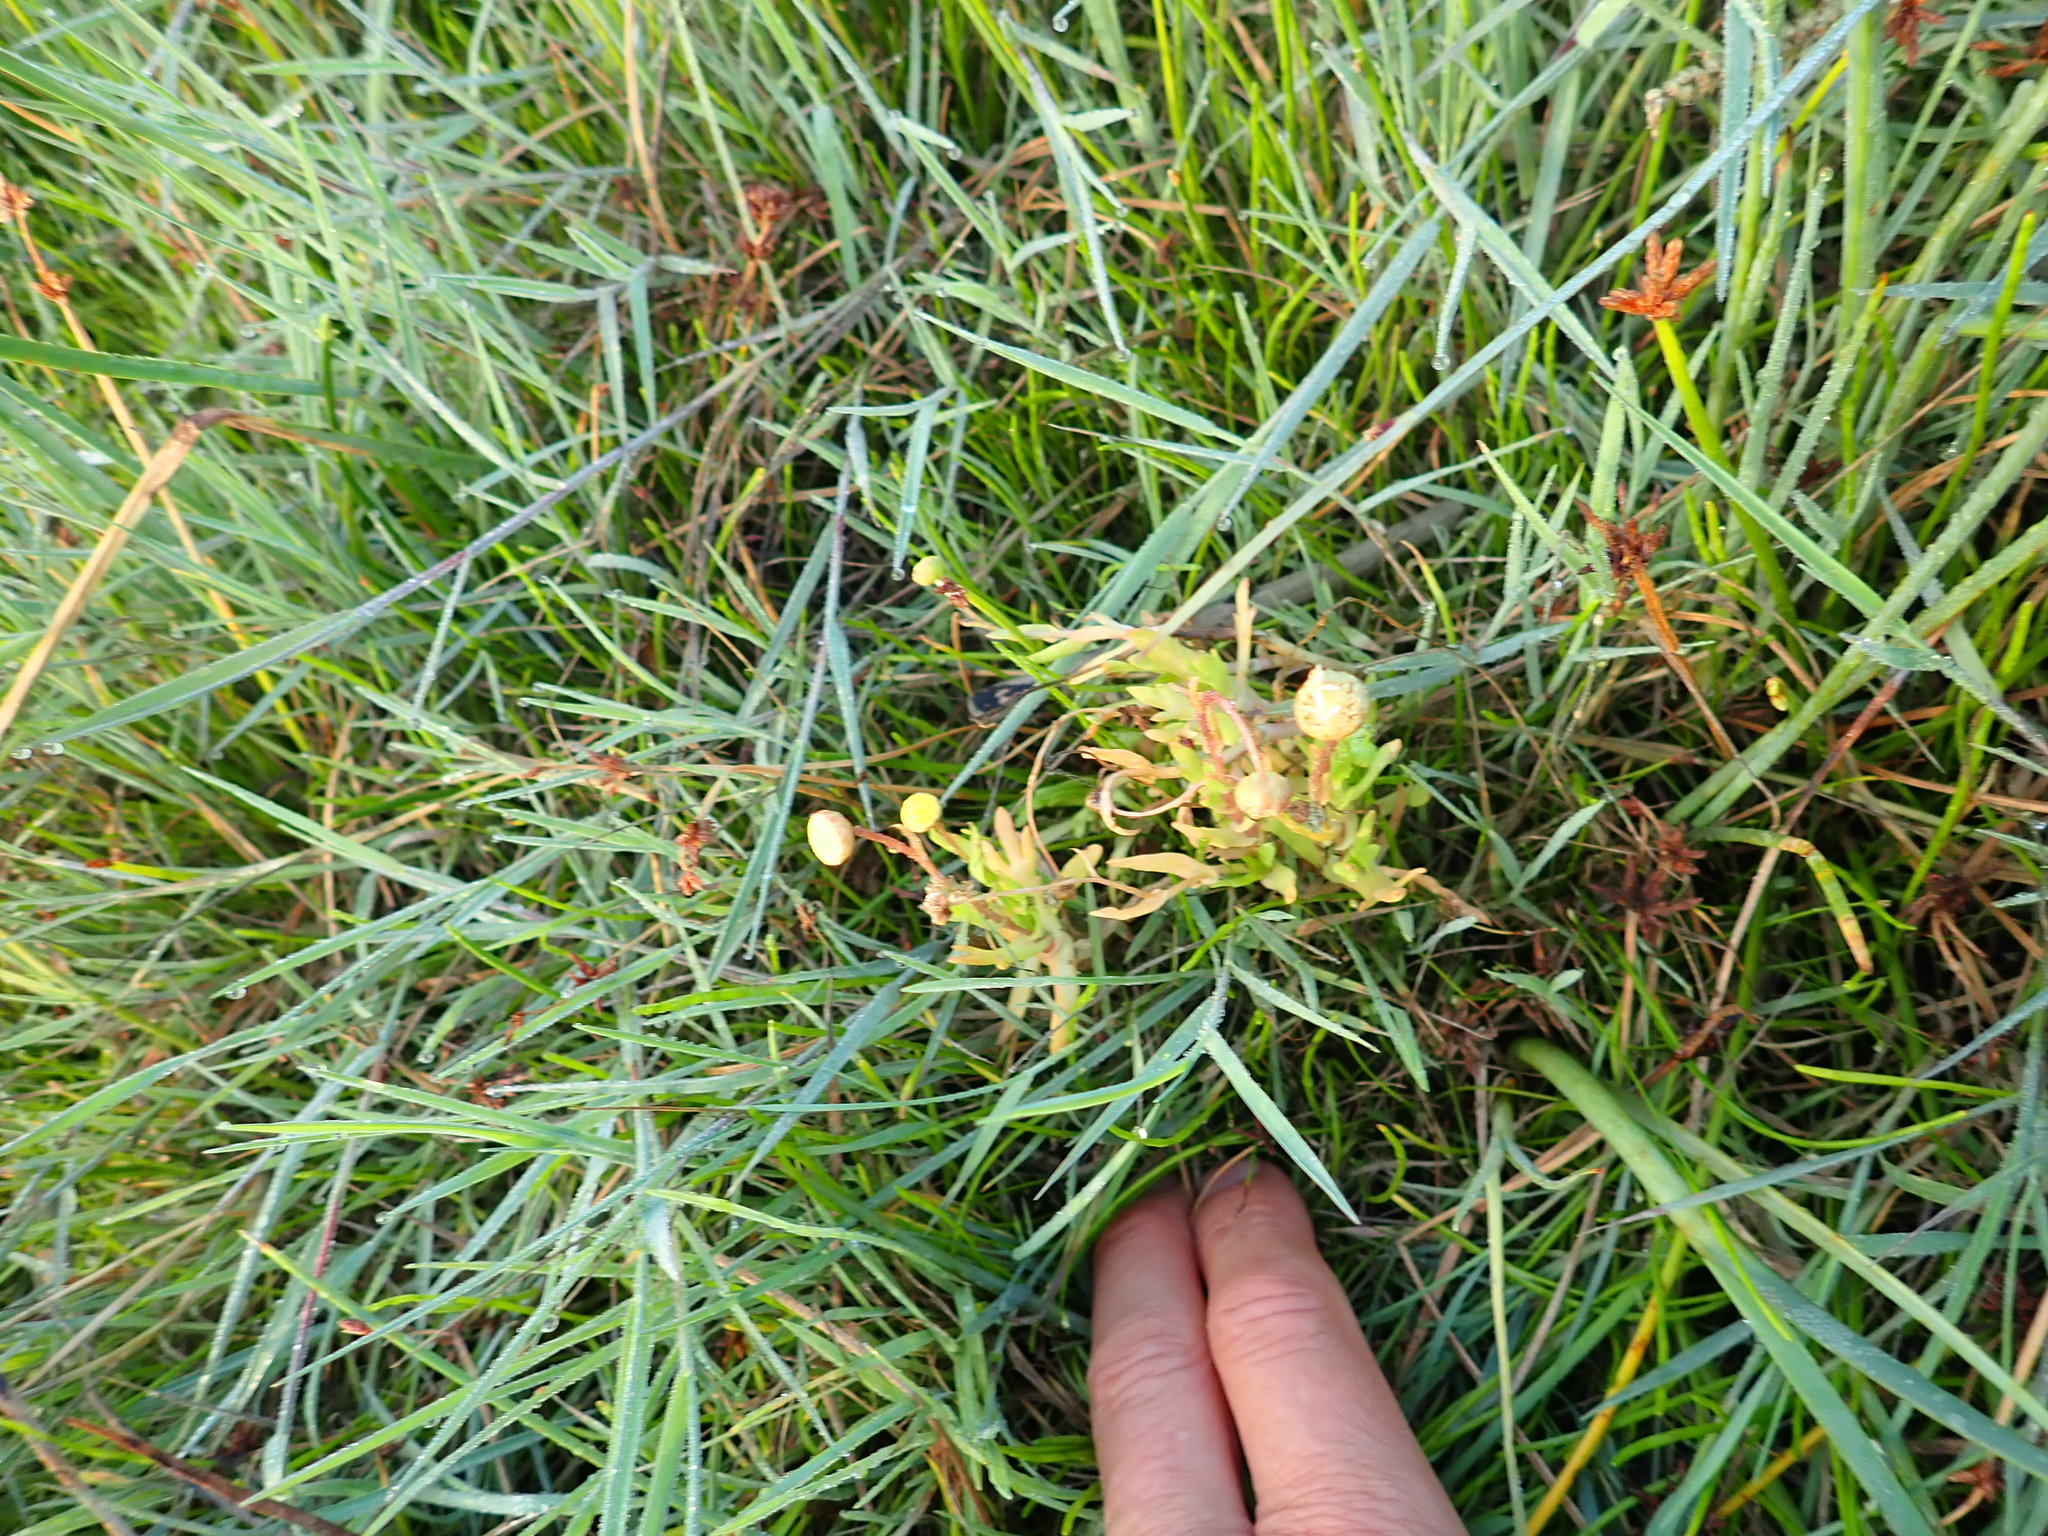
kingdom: Plantae
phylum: Tracheophyta
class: Magnoliopsida
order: Asterales
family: Asteraceae
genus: Cotula
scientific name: Cotula coronopifolia
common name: Buttonweed
